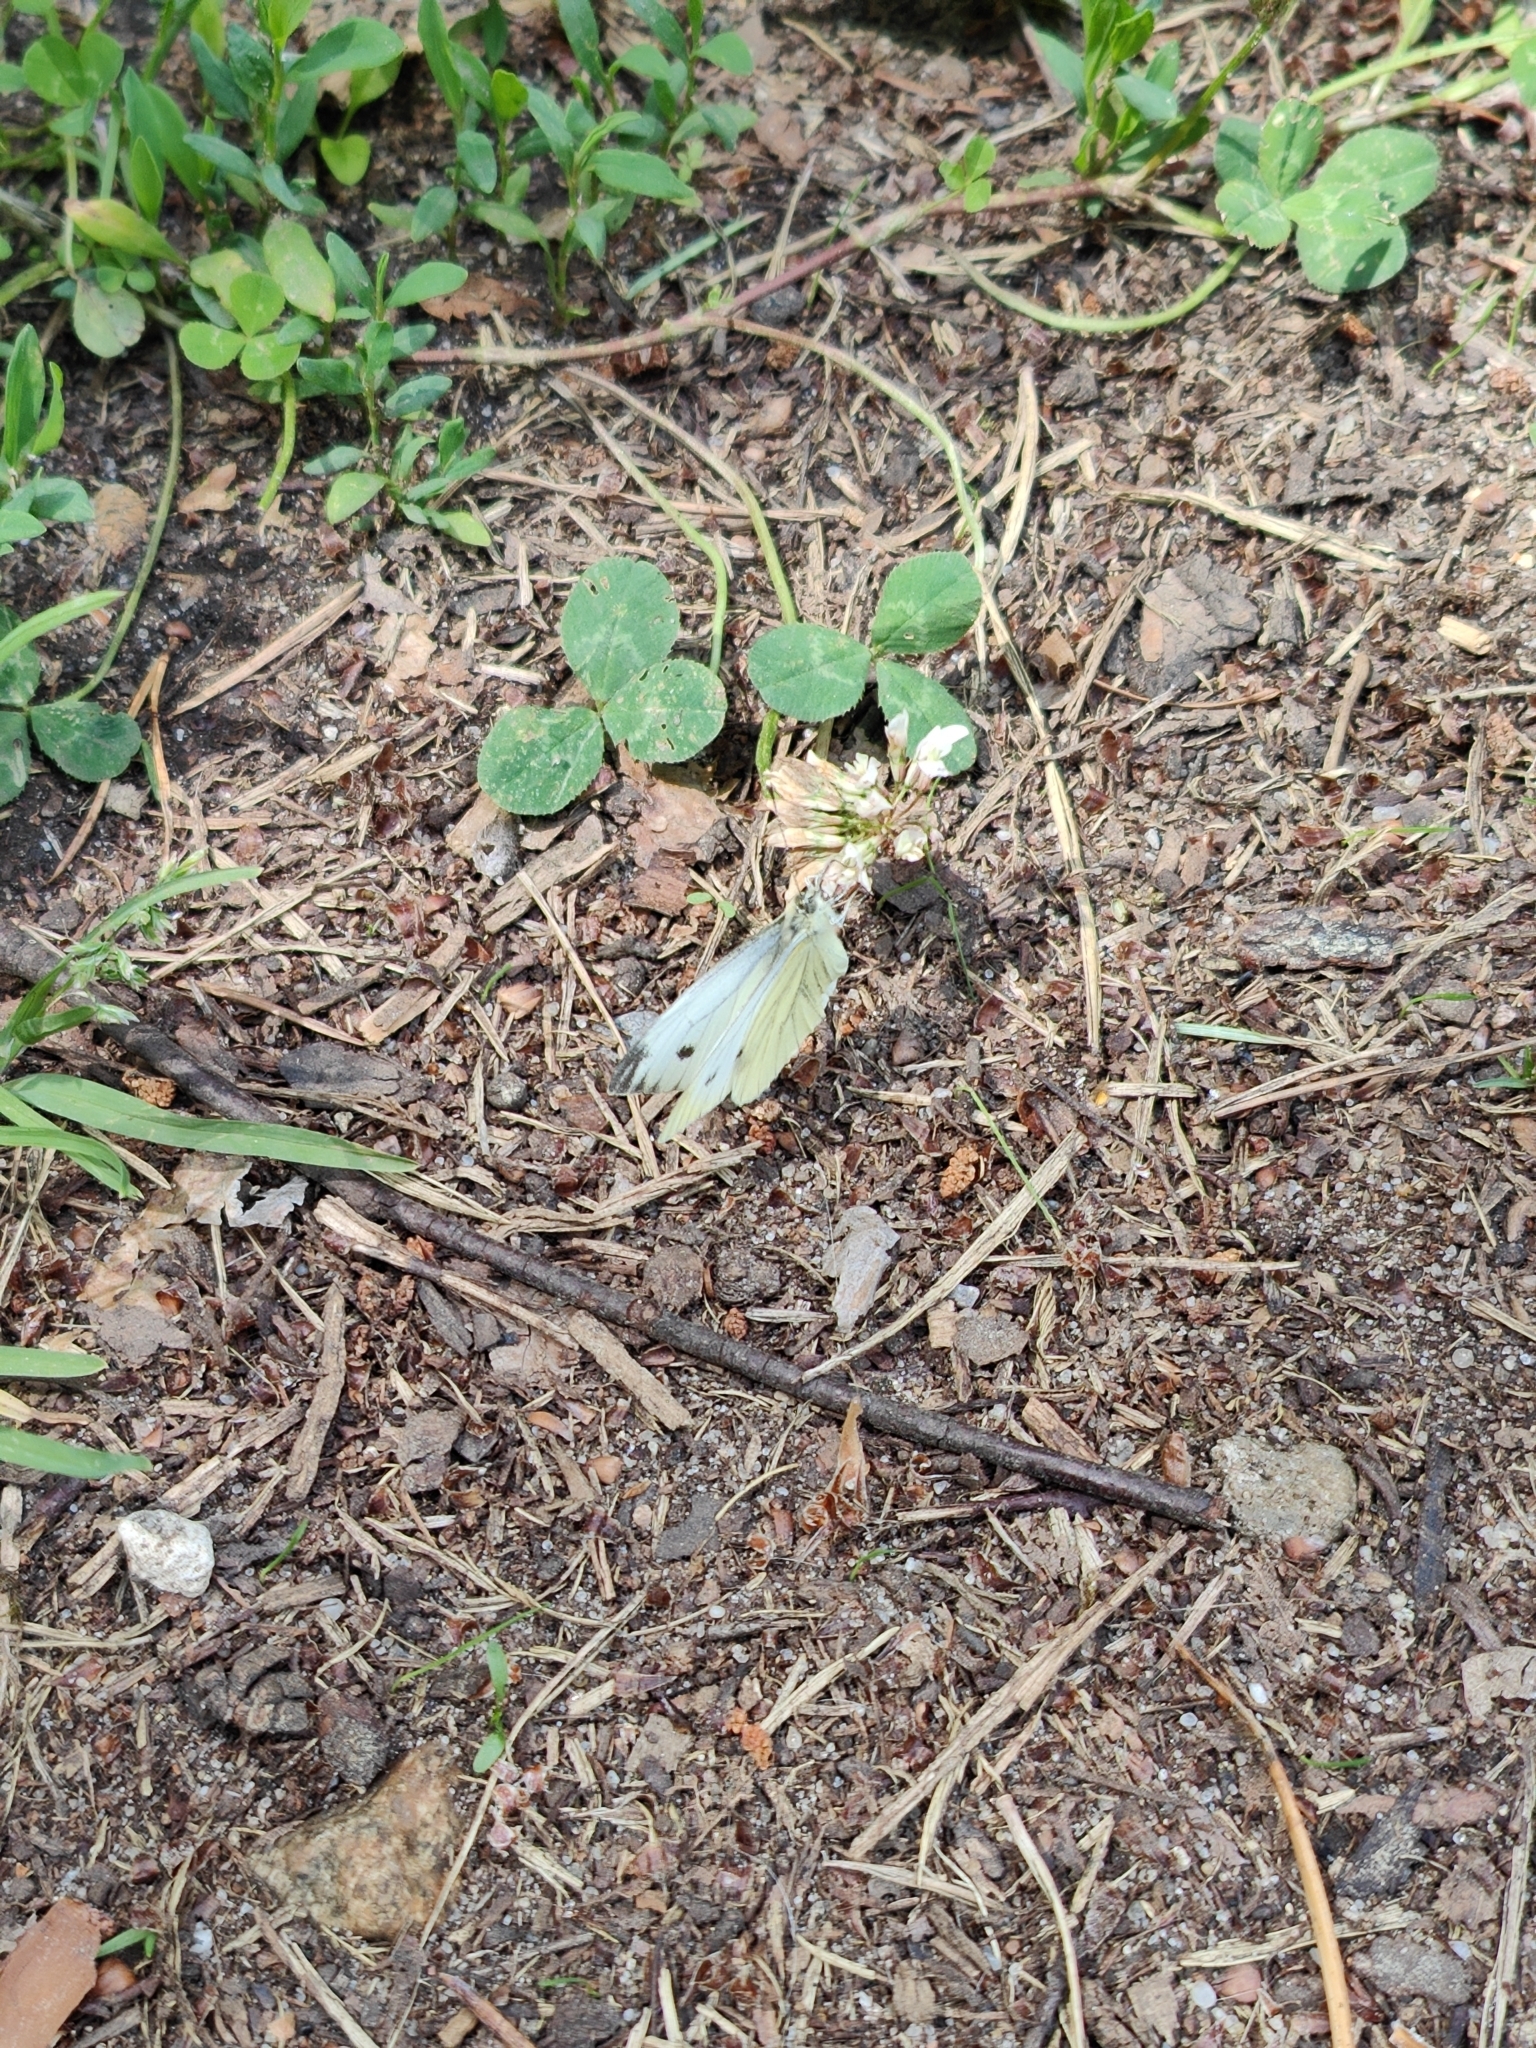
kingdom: Animalia
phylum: Arthropoda
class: Insecta
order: Lepidoptera
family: Pieridae
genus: Pieris
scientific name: Pieris napi
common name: Green-veined white
